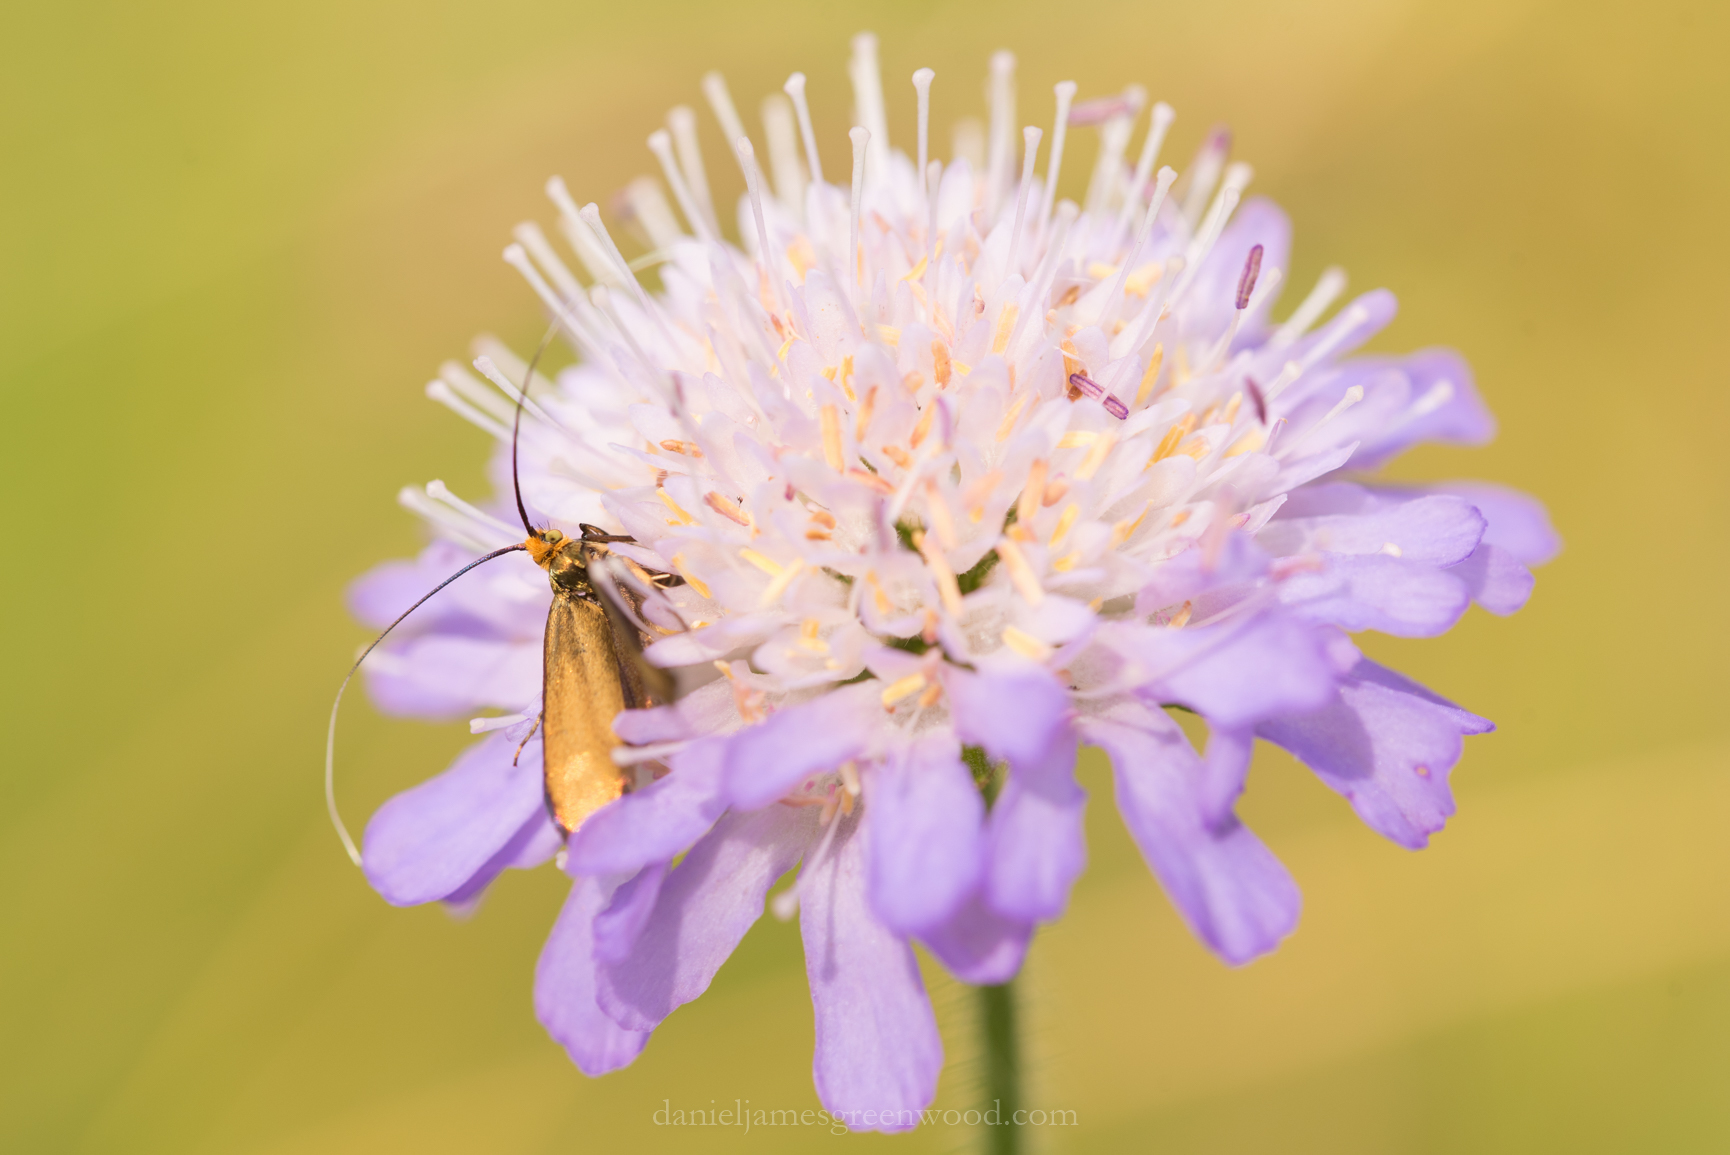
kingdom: Animalia
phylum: Arthropoda
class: Insecta
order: Lepidoptera
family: Adelidae
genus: Nemophora
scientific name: Nemophora metallica
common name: Brassy long-horn
